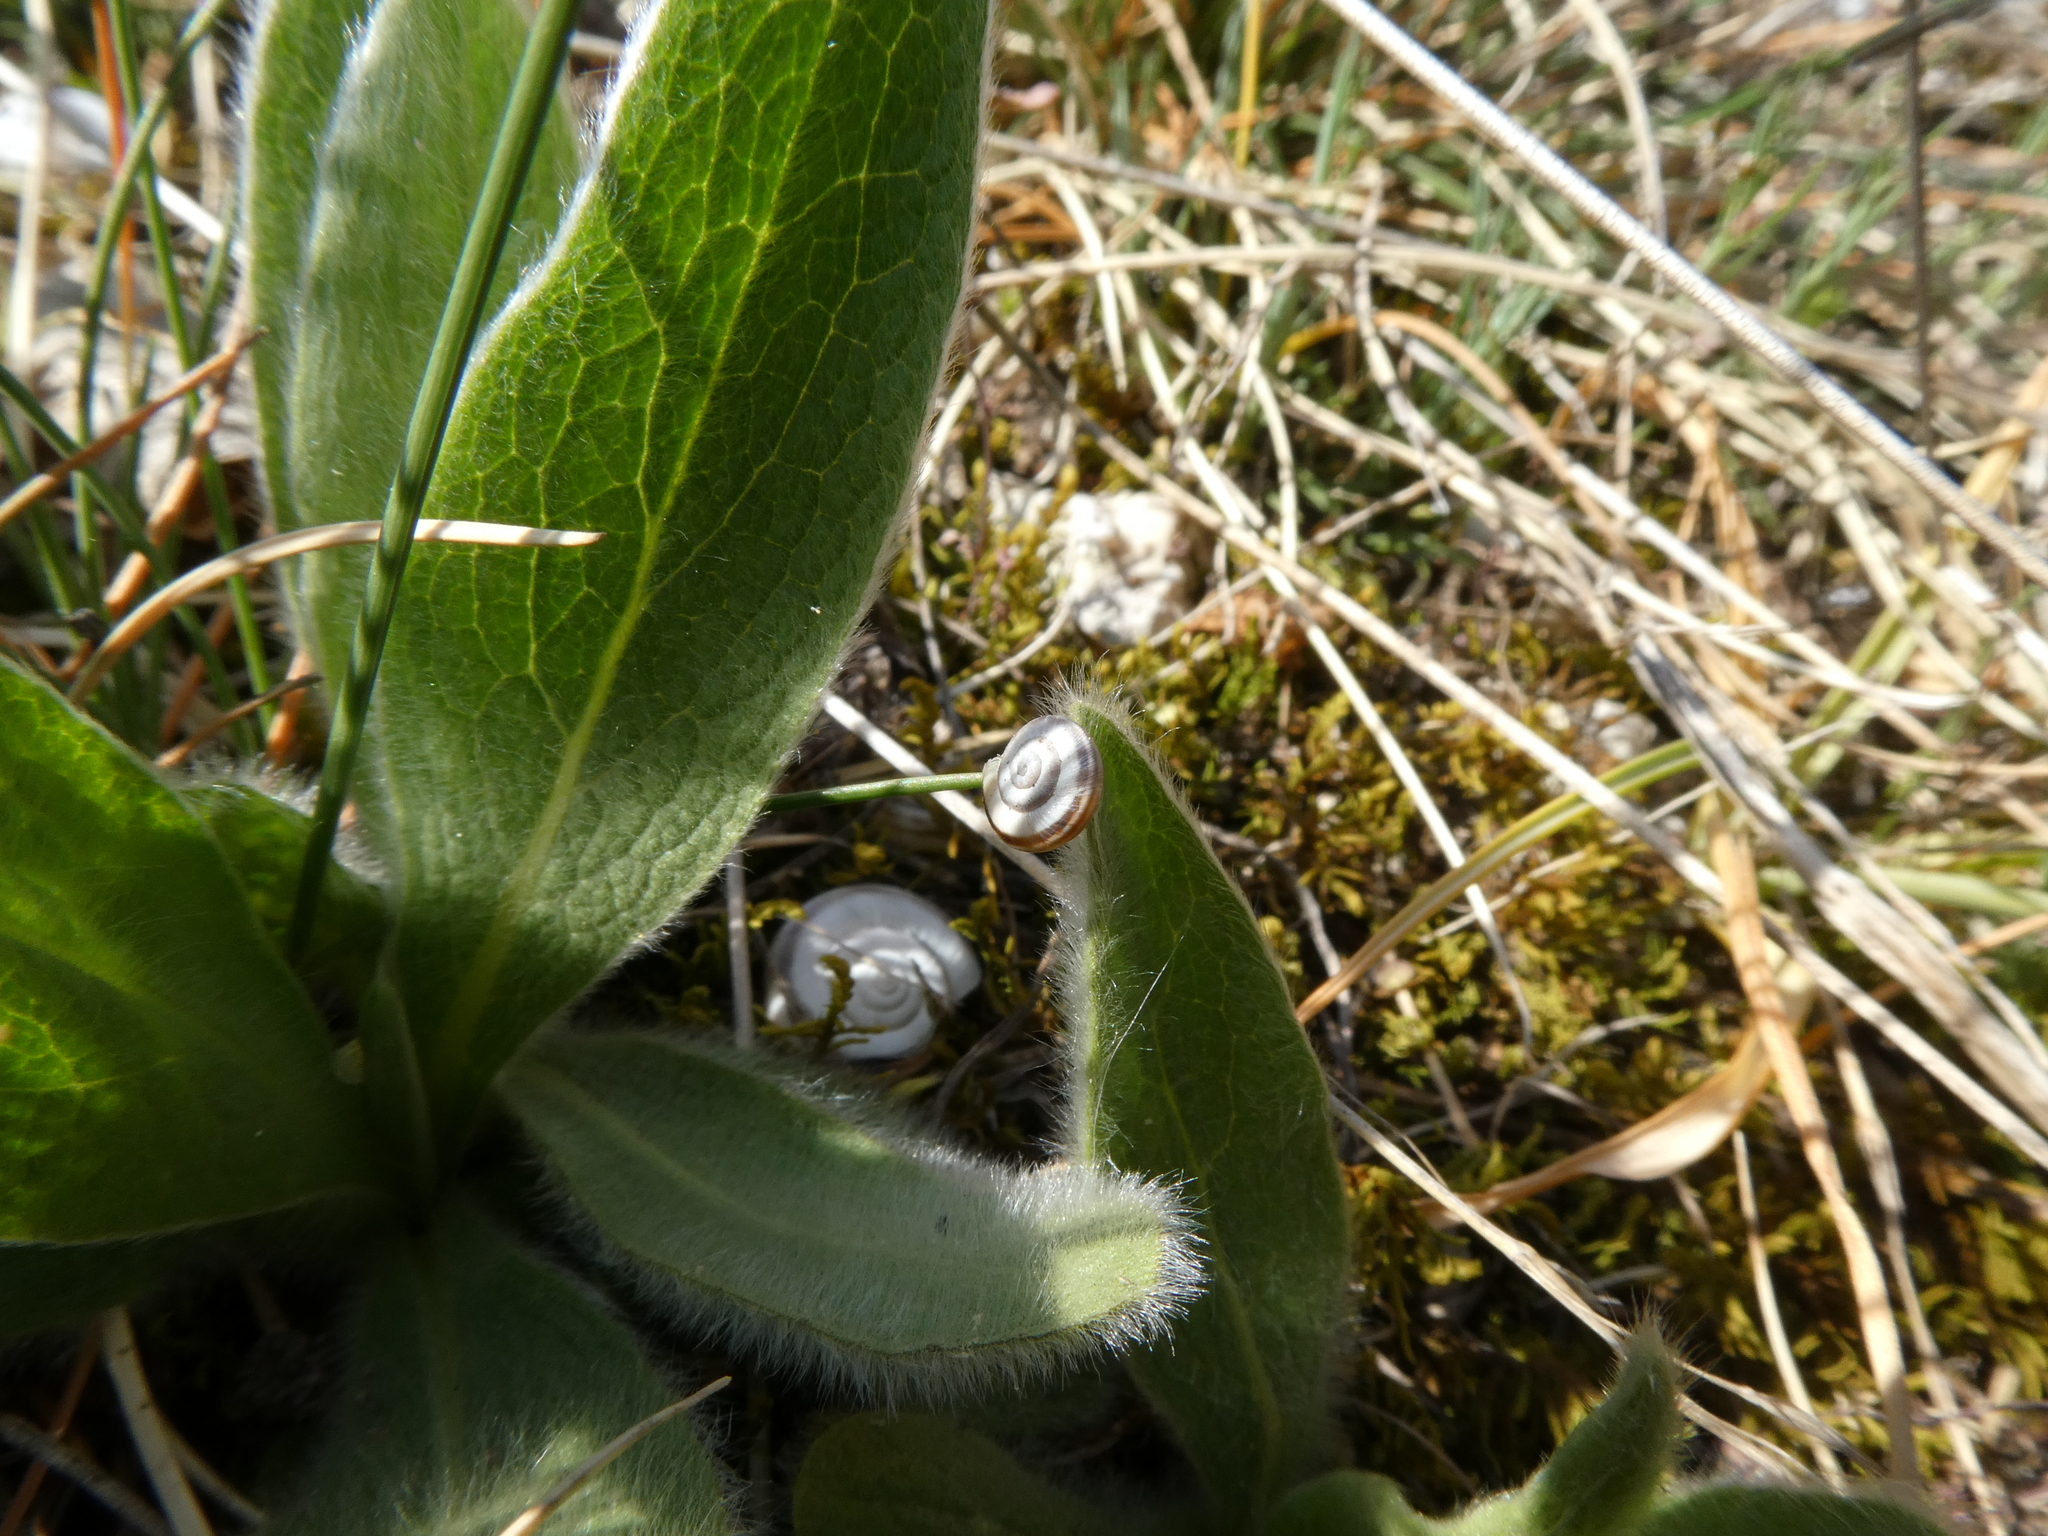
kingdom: Animalia
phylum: Mollusca
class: Gastropoda
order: Stylommatophora
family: Geomitridae
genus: Xerolenta
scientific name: Xerolenta obvia
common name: White heath snail
